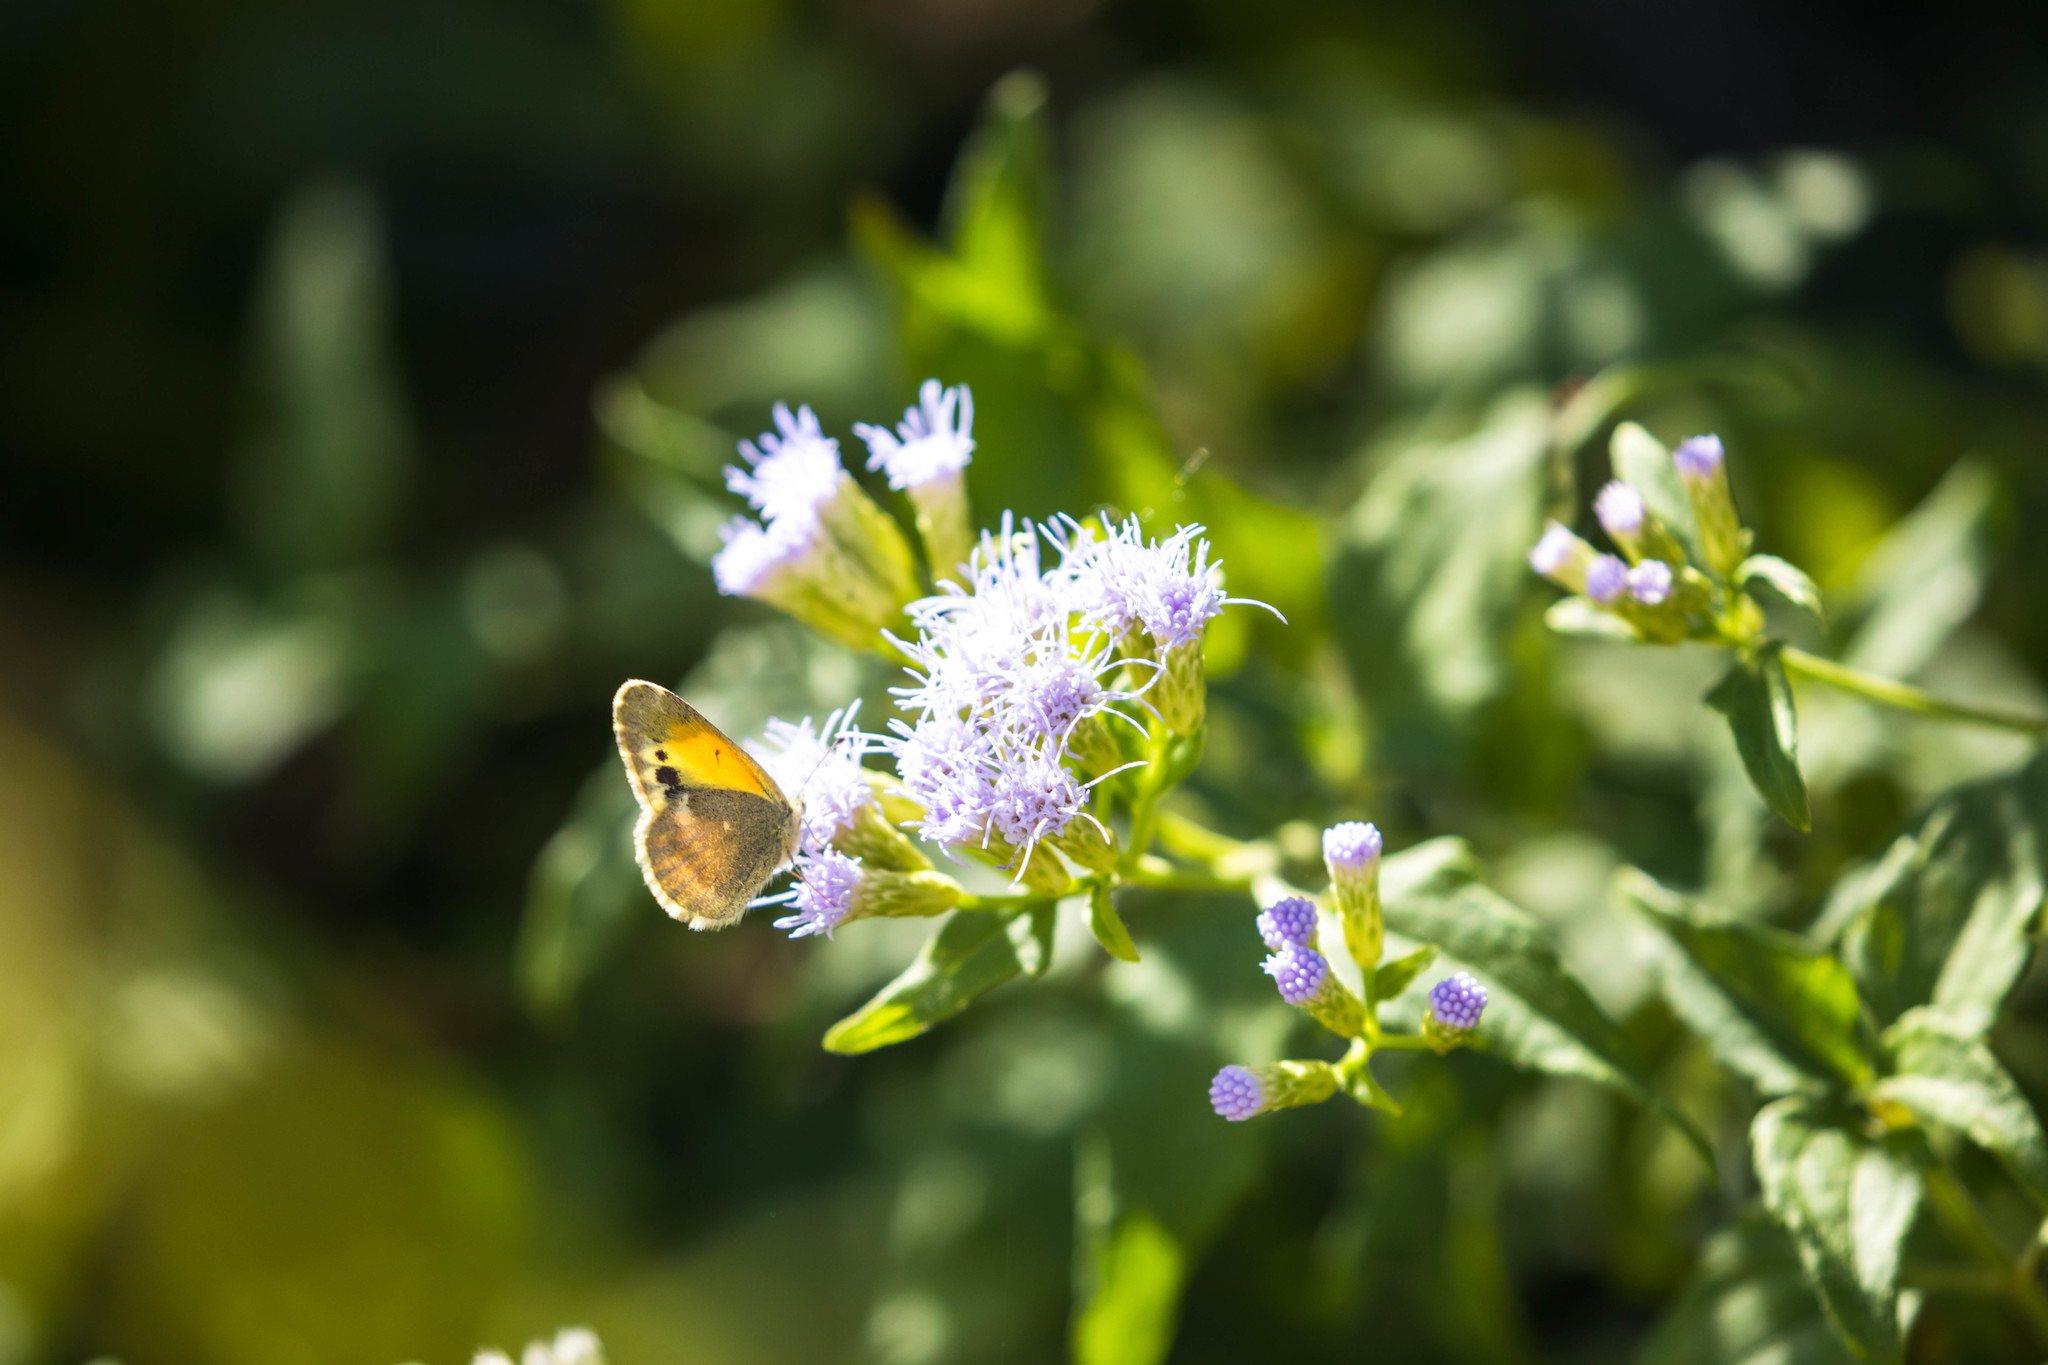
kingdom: Animalia
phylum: Arthropoda
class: Insecta
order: Lepidoptera
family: Pieridae
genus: Nathalis
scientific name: Nathalis iole
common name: Dainty sulphur
